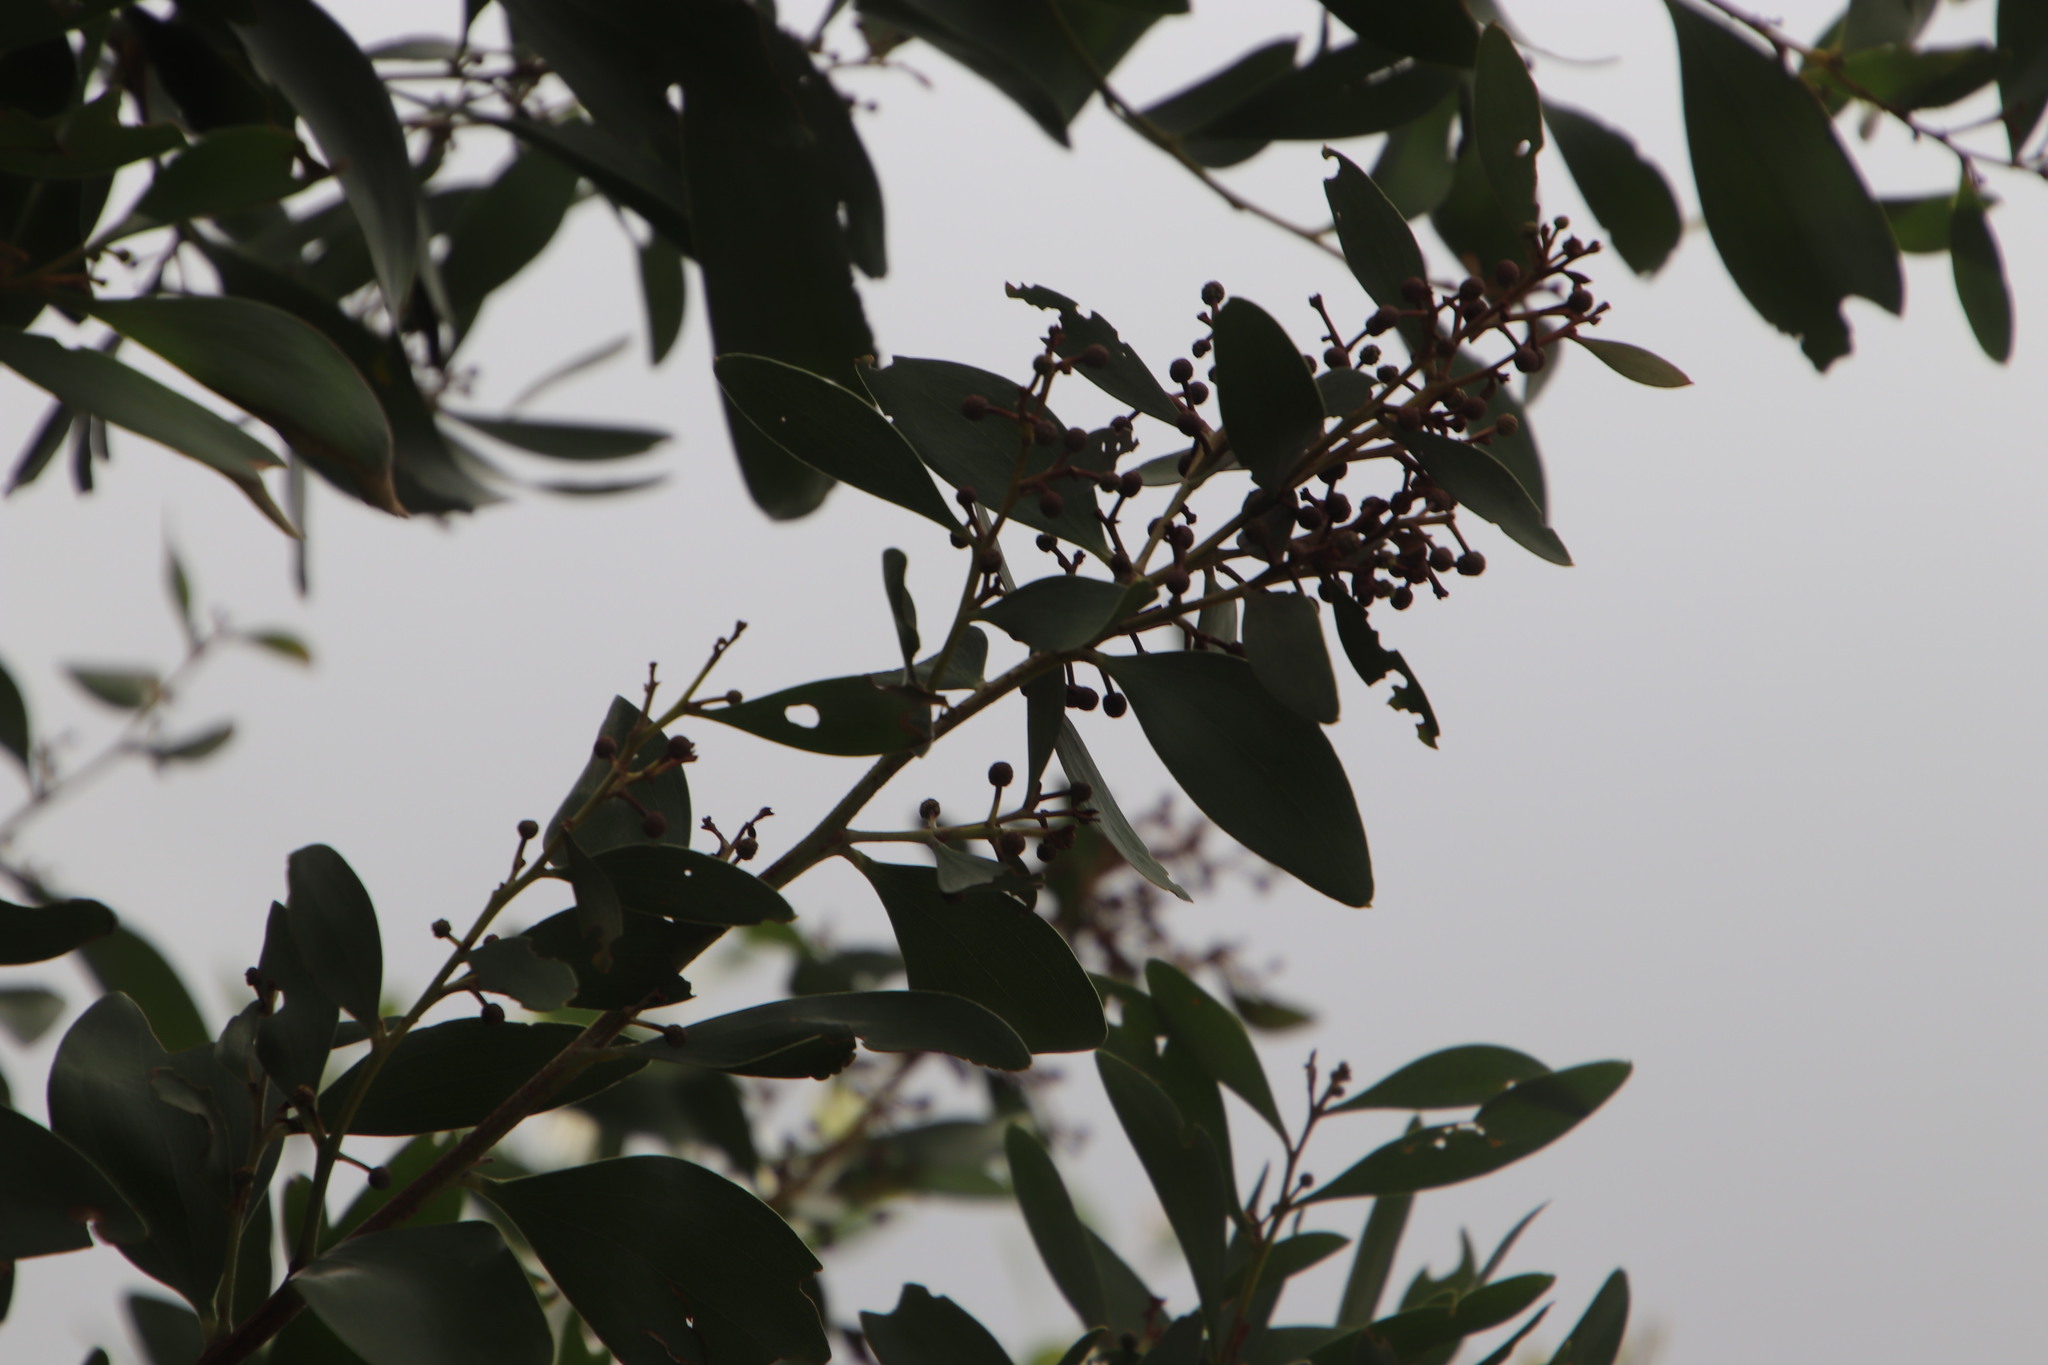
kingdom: Plantae
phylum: Tracheophyta
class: Magnoliopsida
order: Fabales
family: Fabaceae
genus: Acacia
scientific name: Acacia melanoxylon
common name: Blackwood
